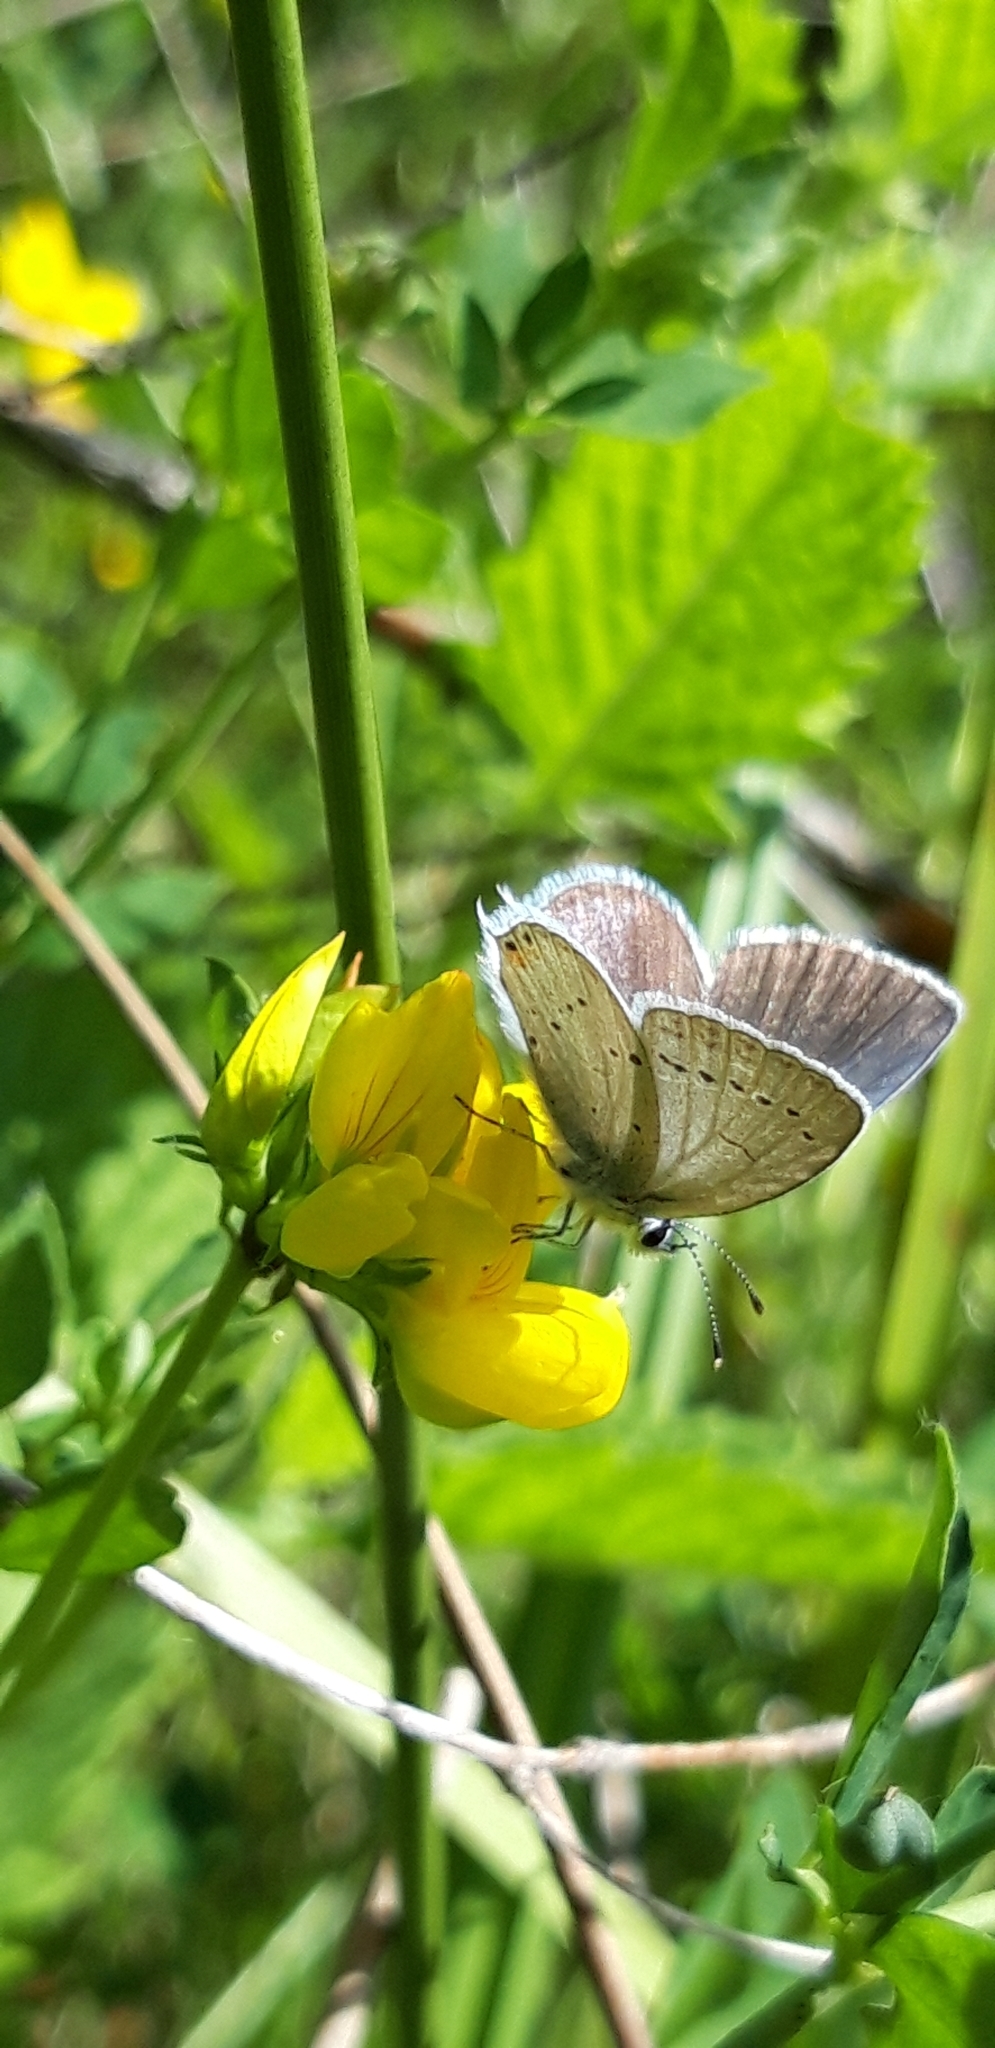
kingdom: Animalia
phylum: Arthropoda
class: Insecta
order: Lepidoptera
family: Lycaenidae
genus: Elkalyce
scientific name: Elkalyce argiades
